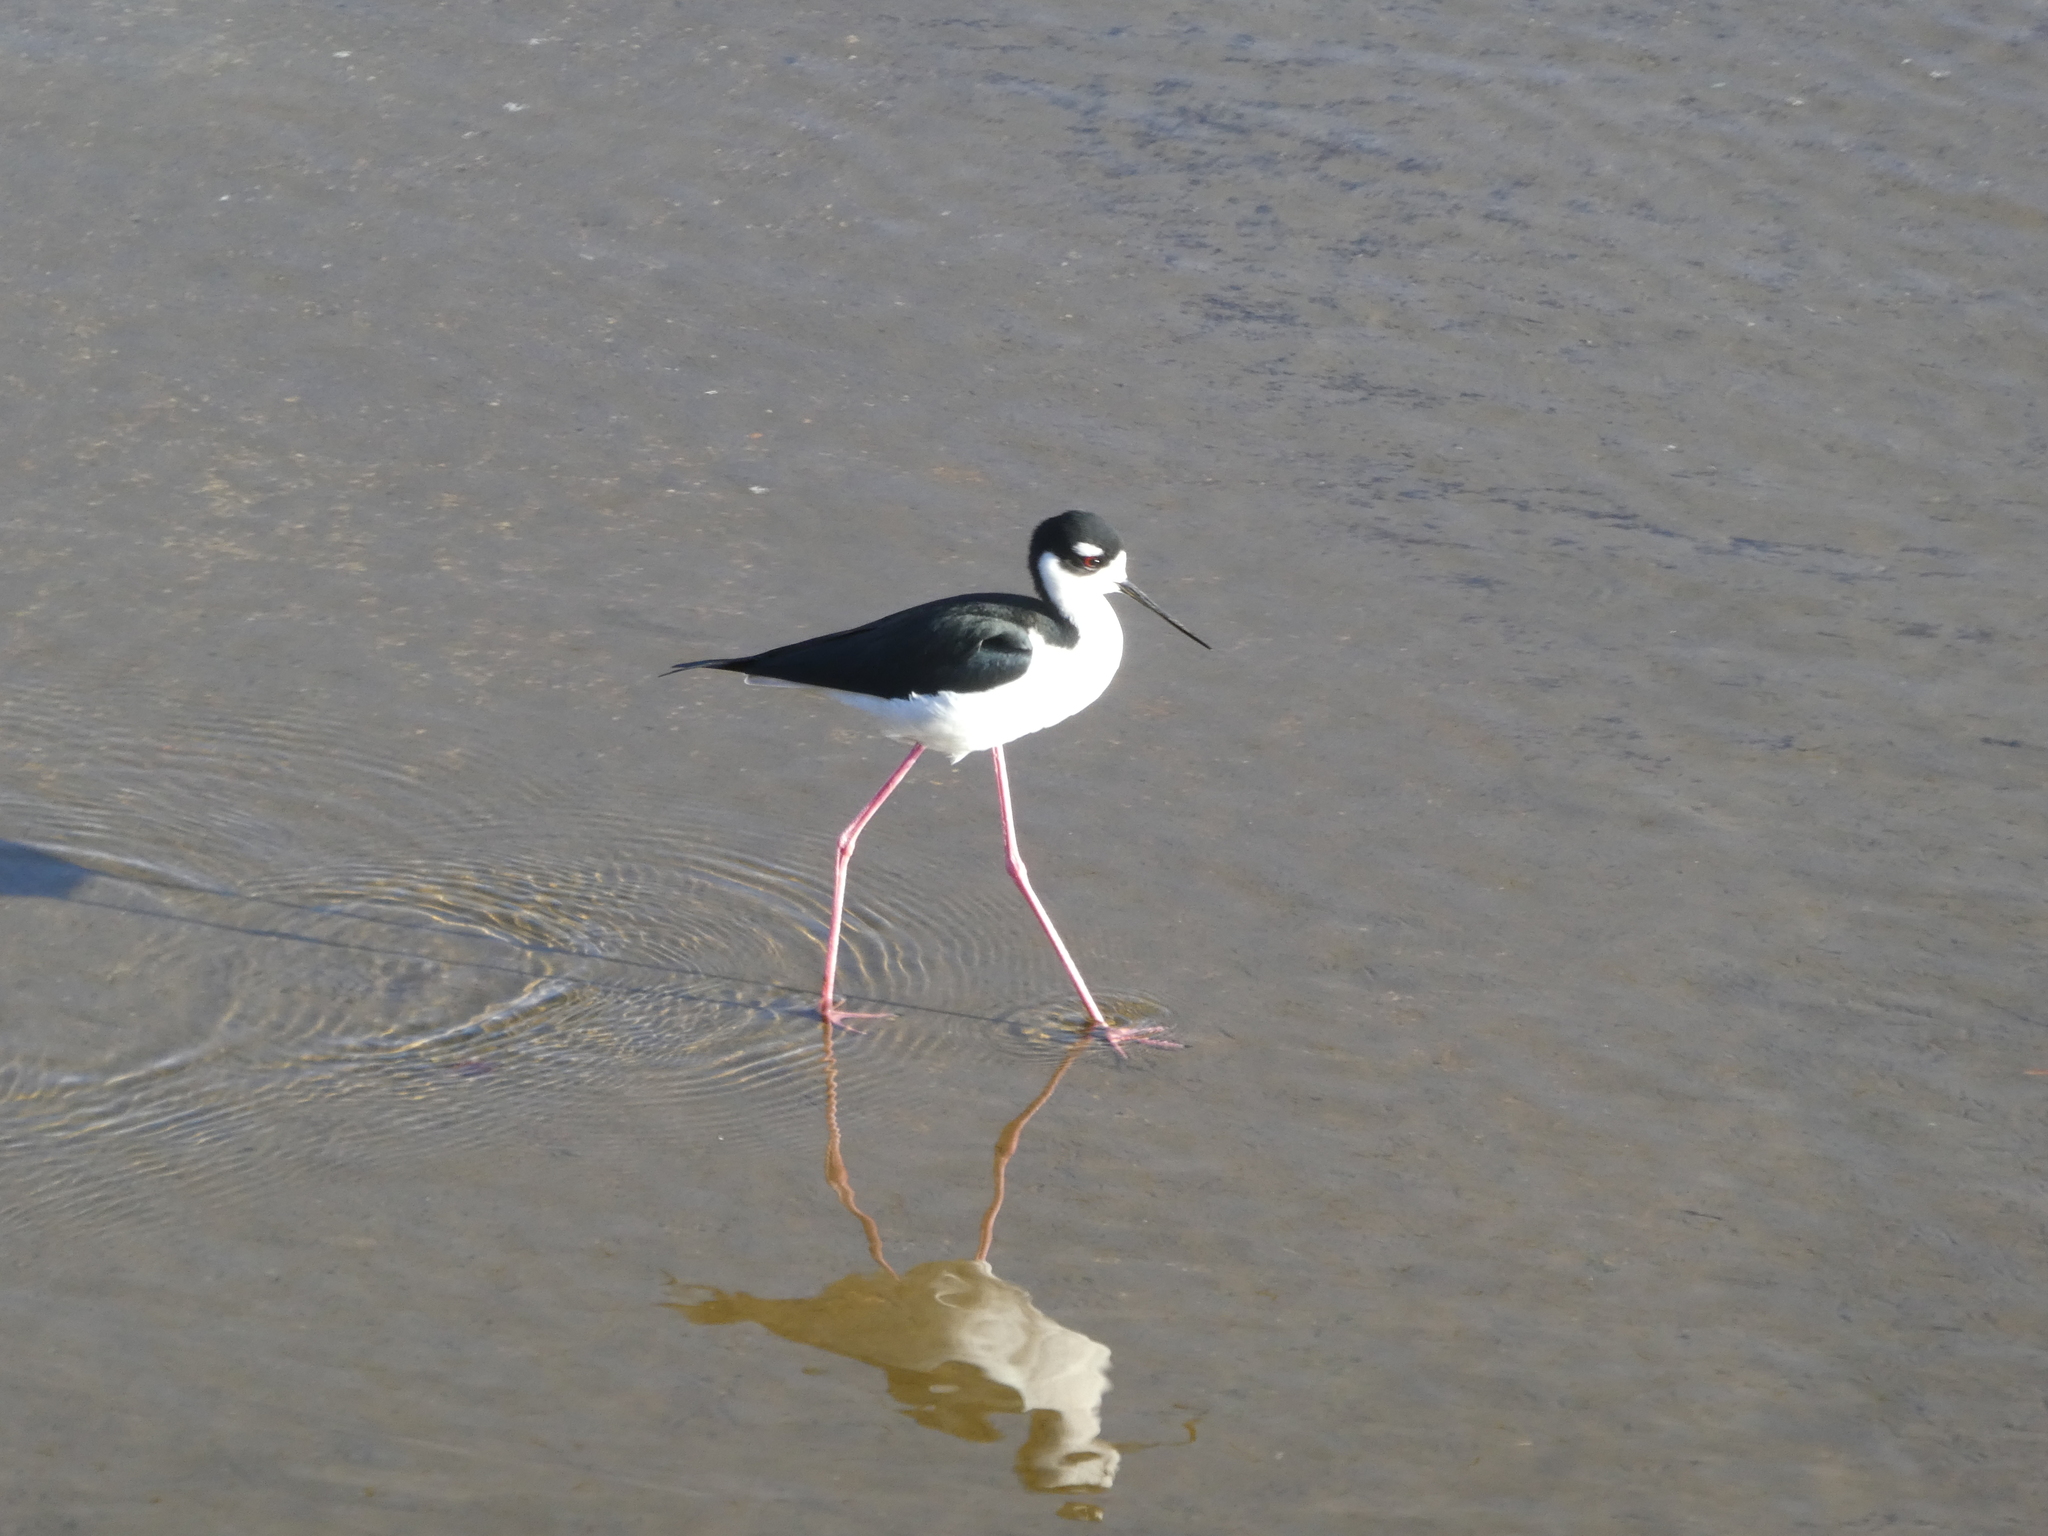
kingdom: Animalia
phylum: Chordata
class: Aves
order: Charadriiformes
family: Recurvirostridae
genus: Himantopus
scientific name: Himantopus mexicanus
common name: Black-necked stilt
